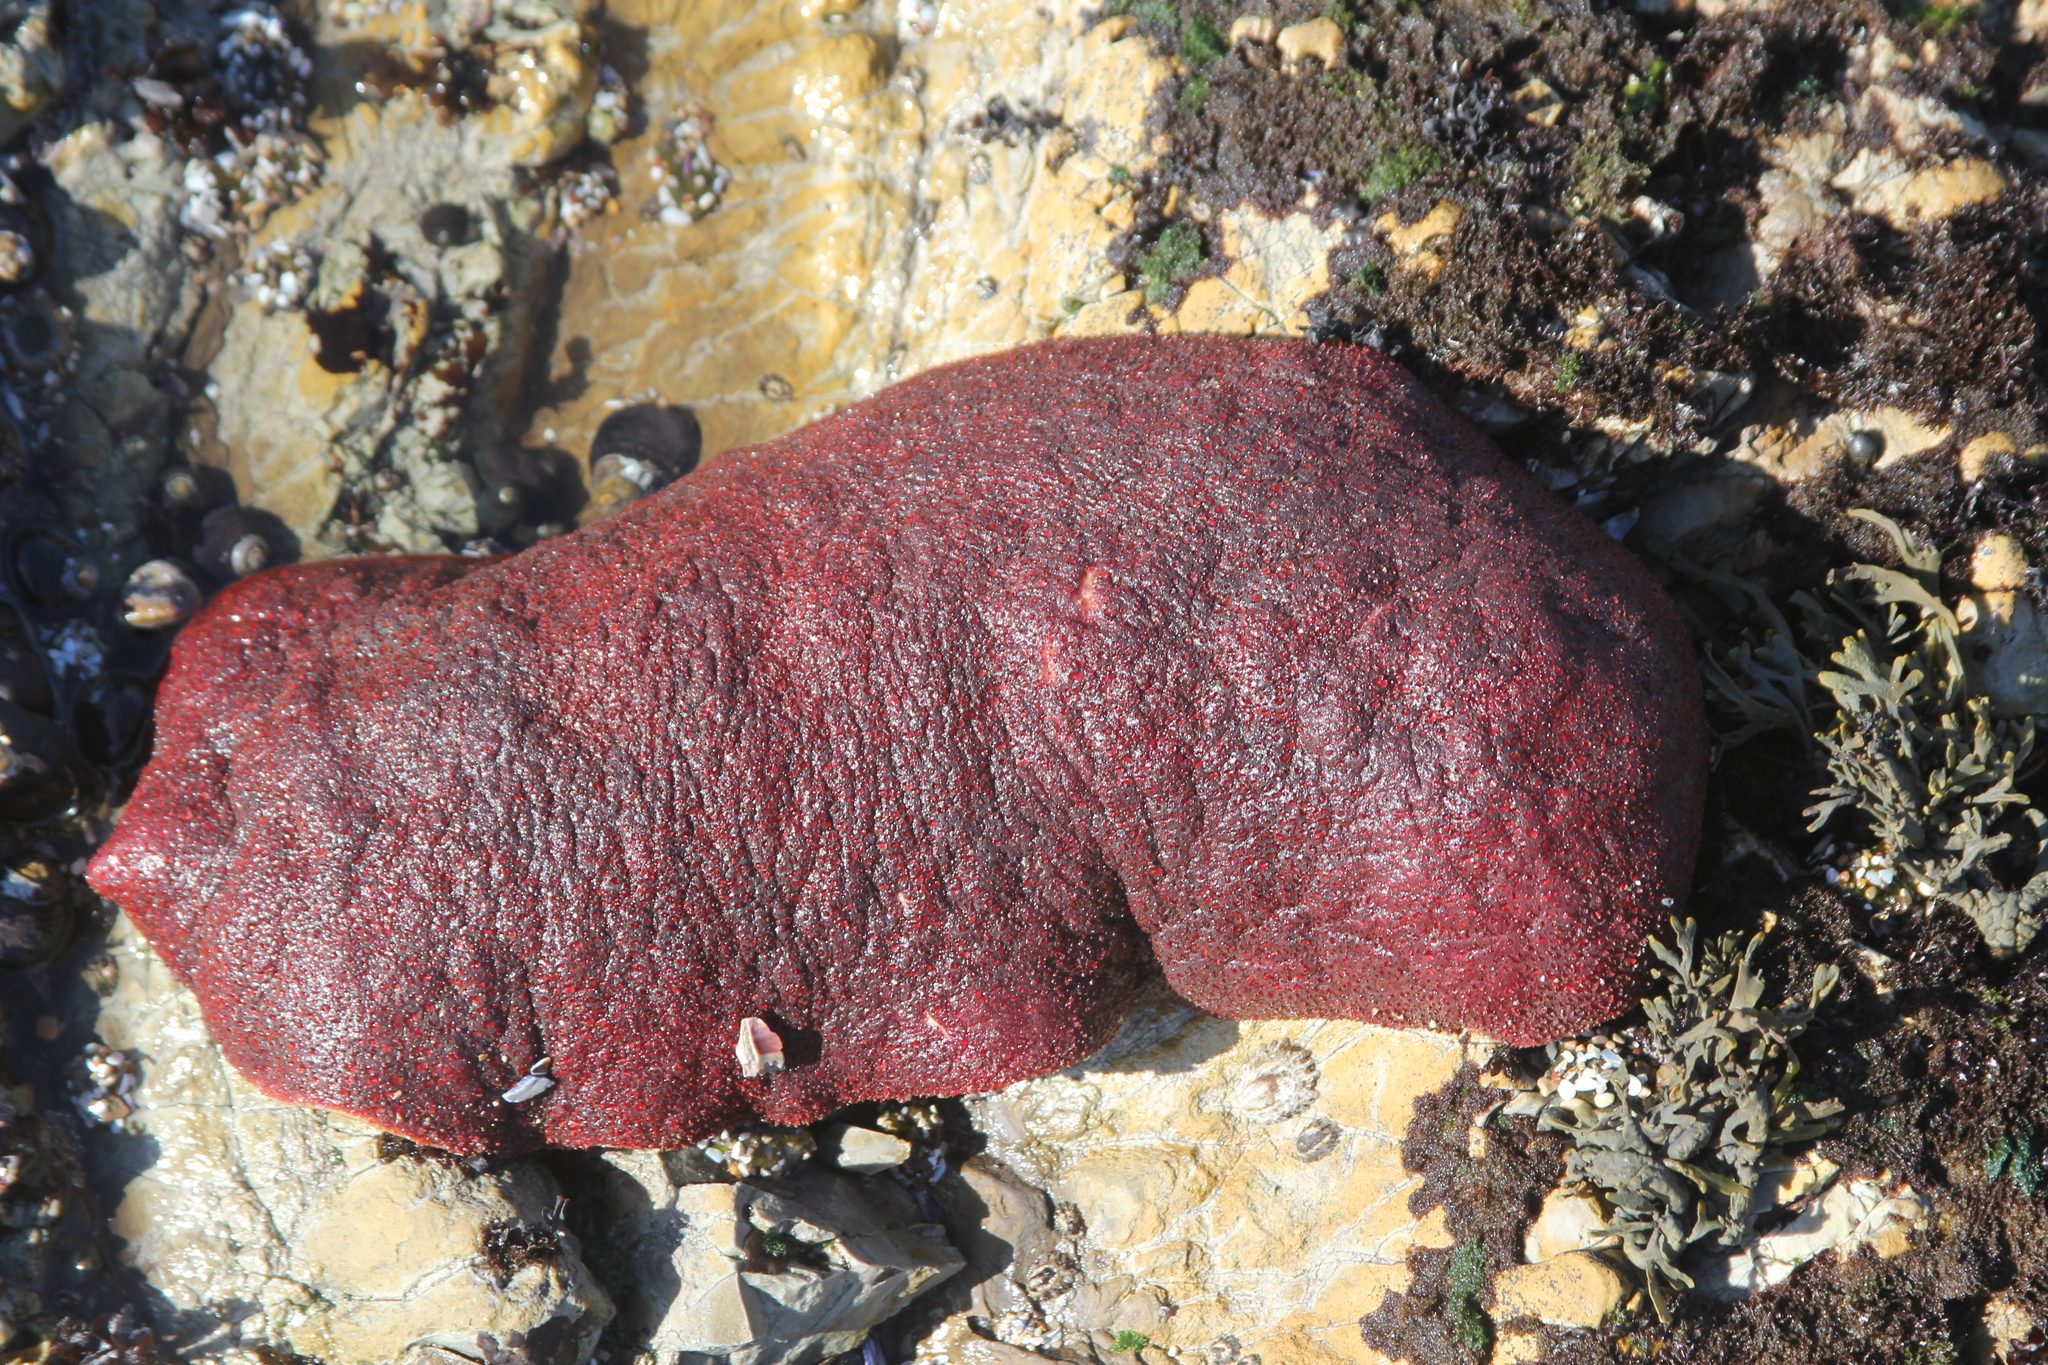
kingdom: Animalia
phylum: Mollusca
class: Polyplacophora
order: Chitonida
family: Acanthochitonidae
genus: Cryptochiton
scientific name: Cryptochiton stelleri
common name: Giant pacific chiton
